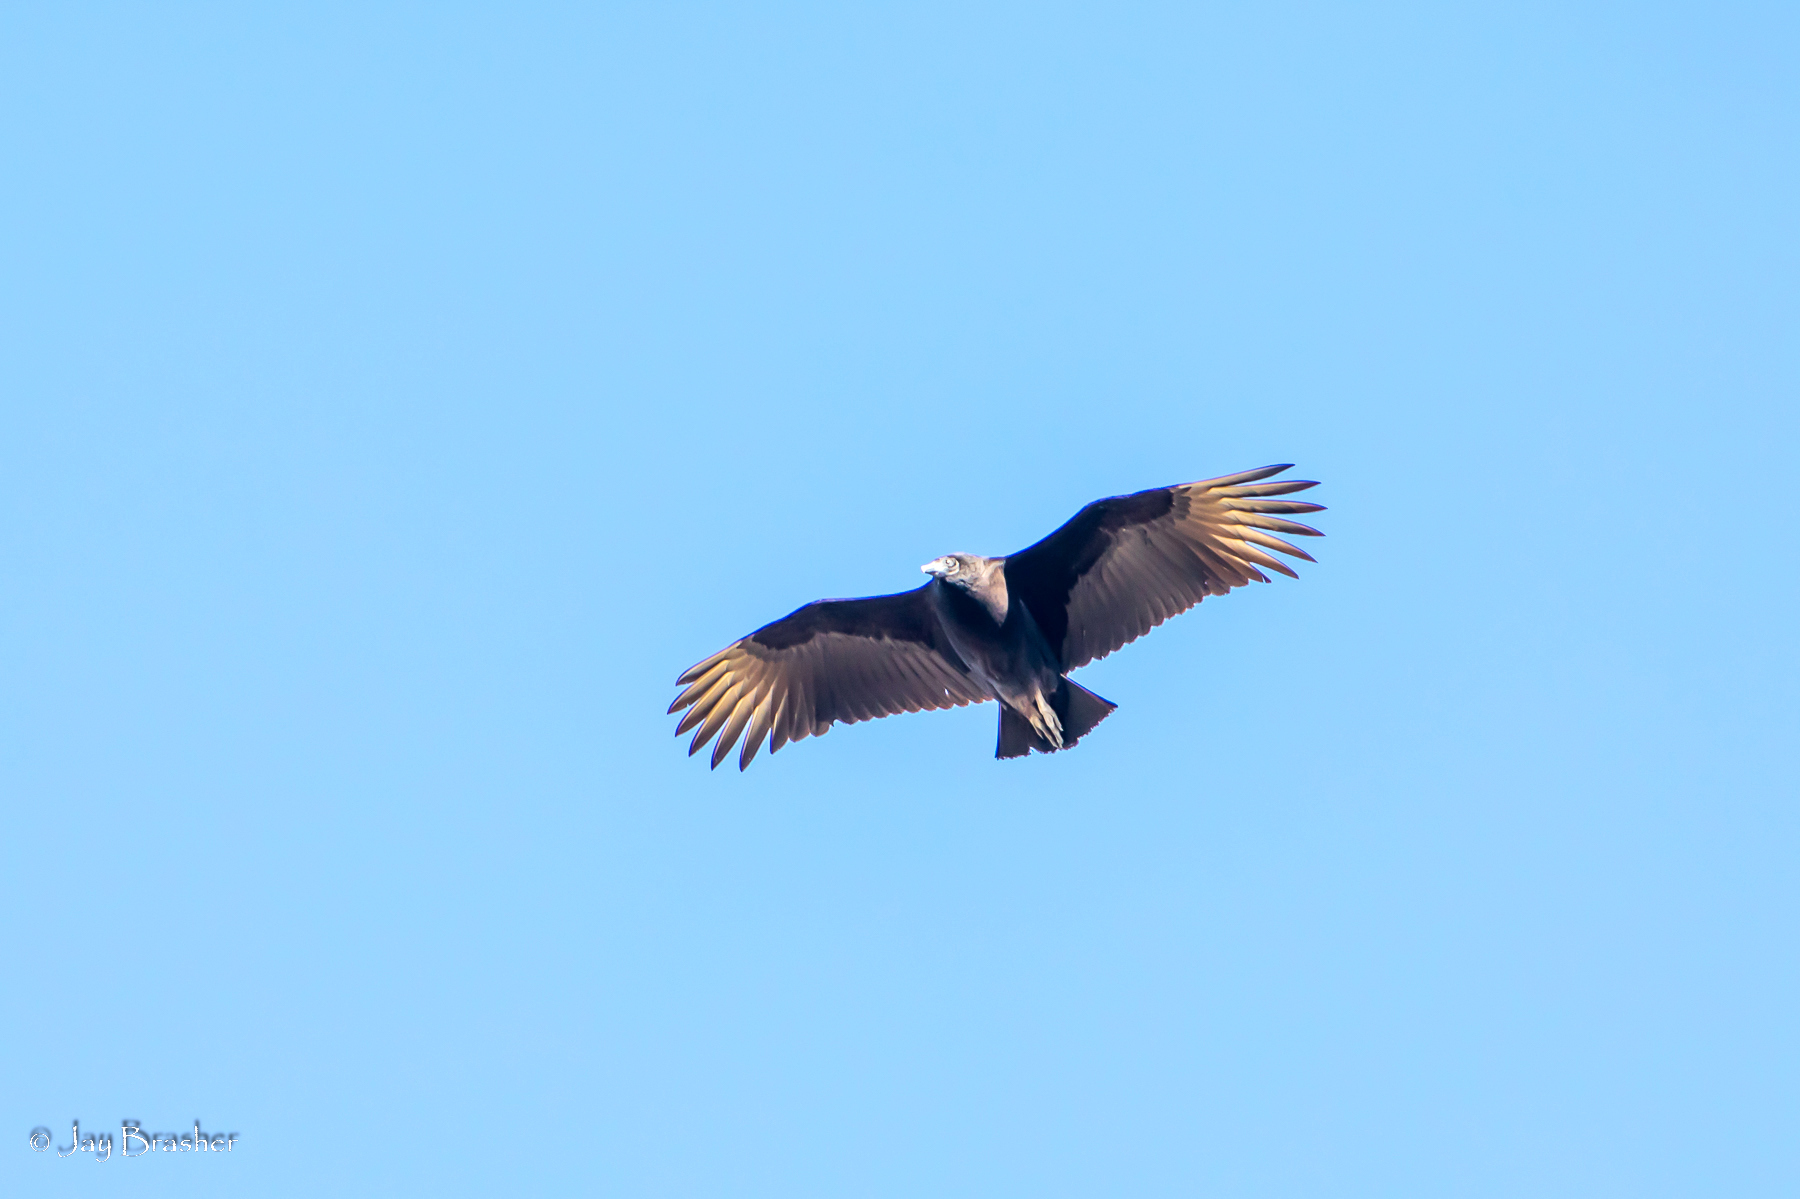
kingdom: Animalia
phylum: Chordata
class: Aves
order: Accipitriformes
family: Cathartidae
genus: Coragyps
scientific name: Coragyps atratus
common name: Black vulture
